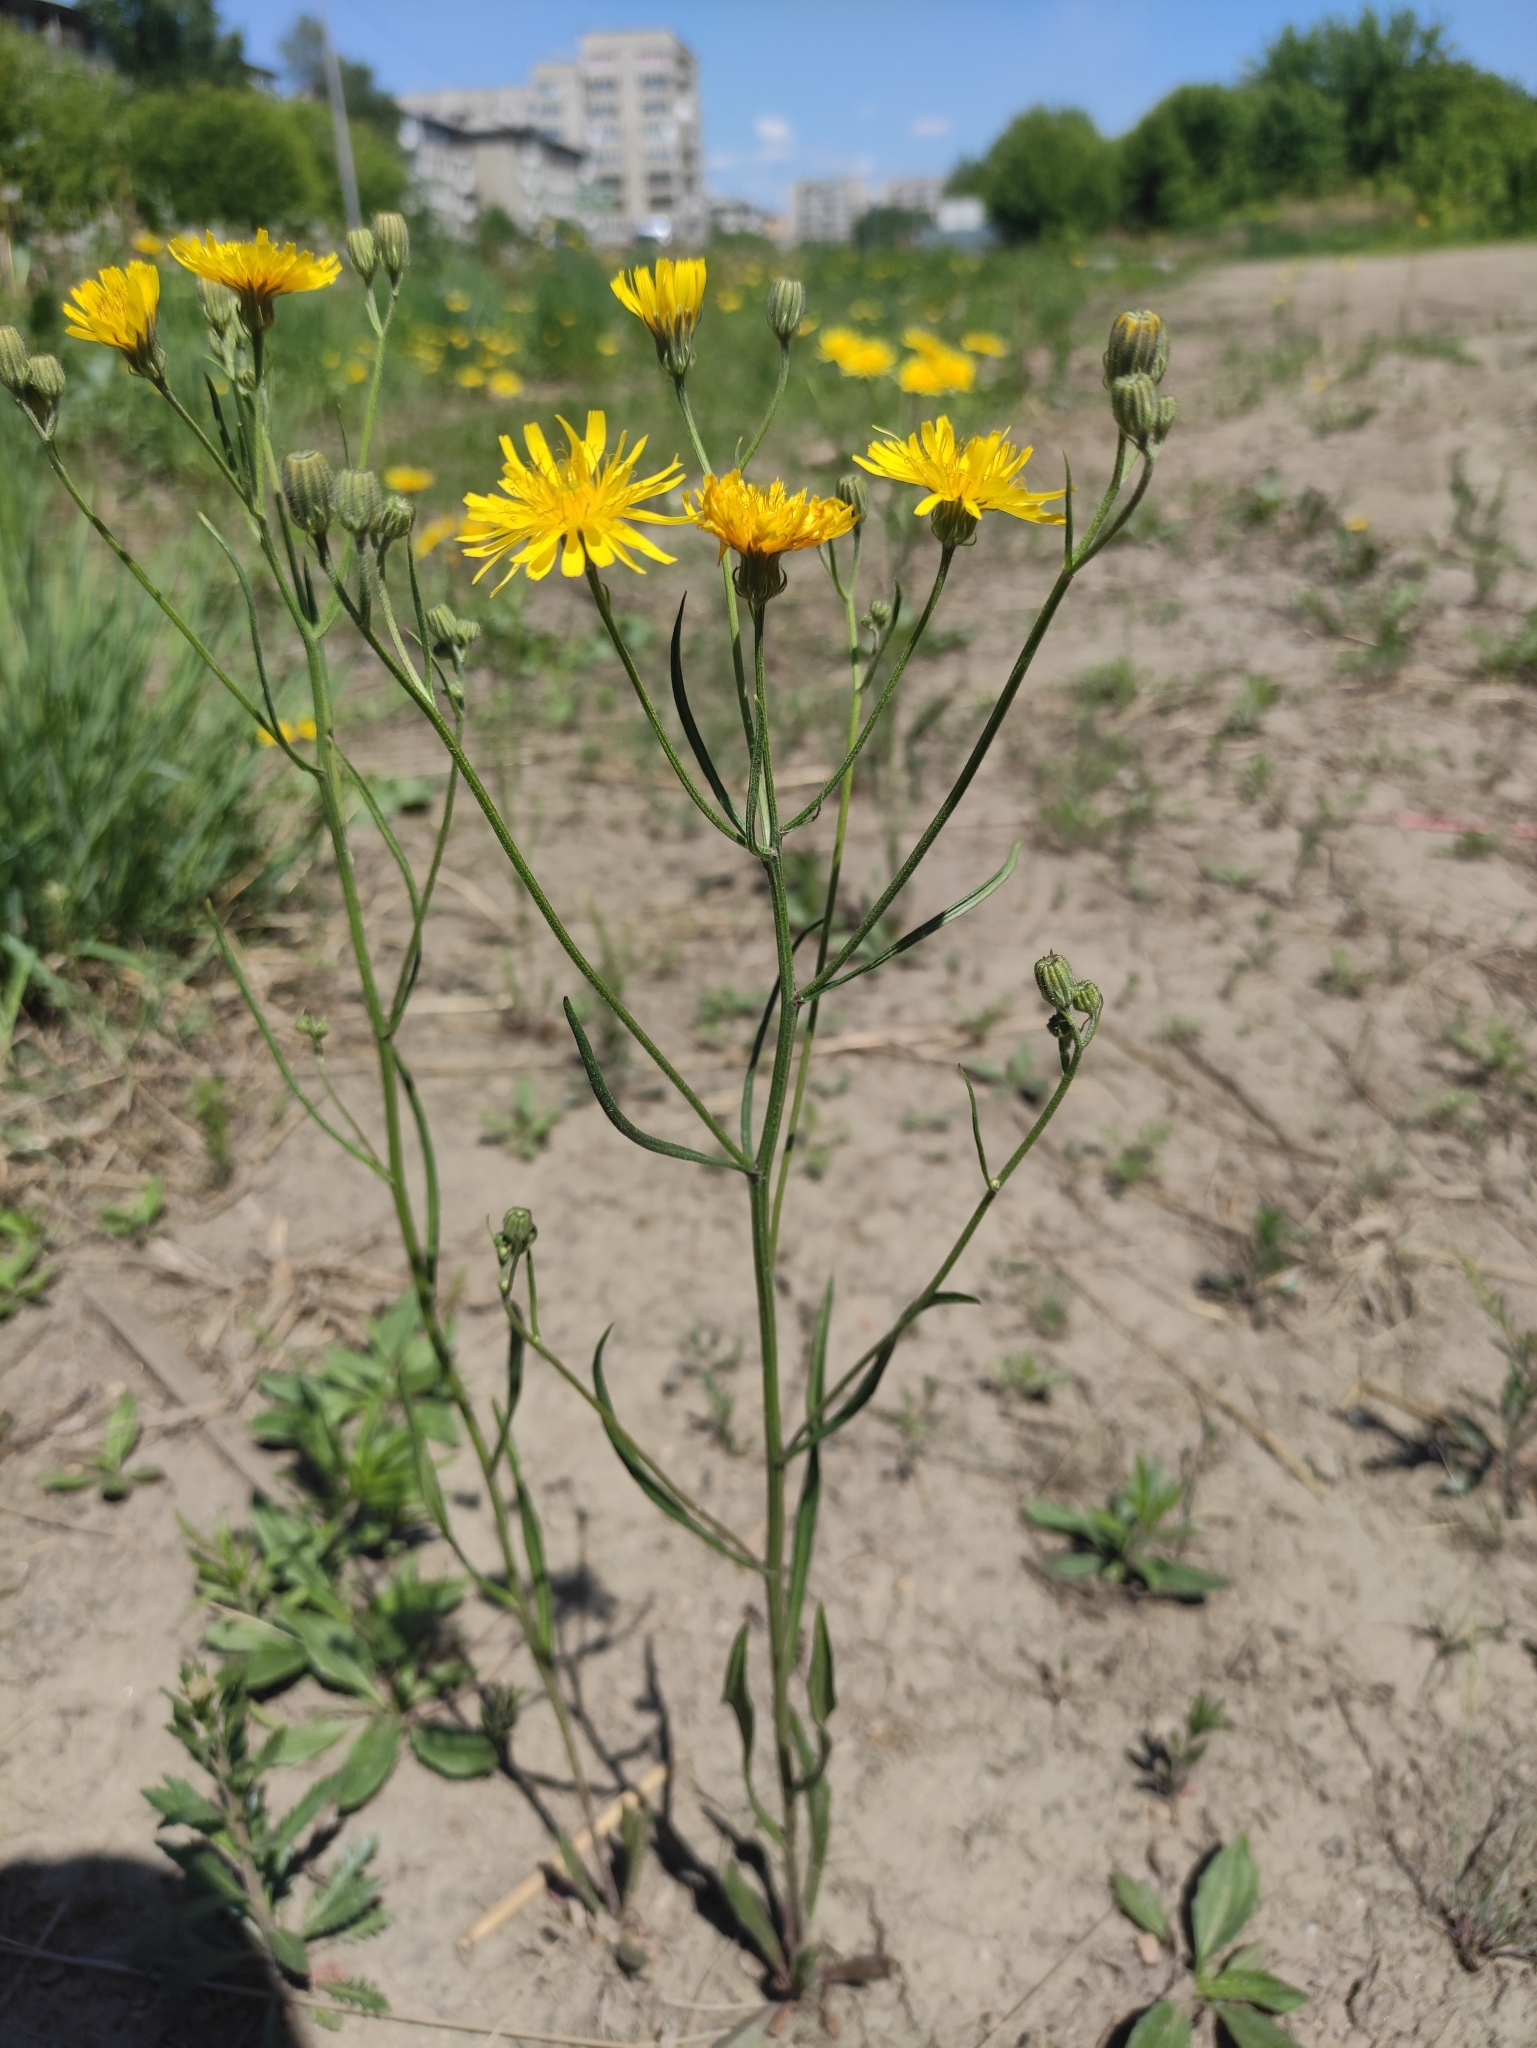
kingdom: Plantae
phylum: Tracheophyta
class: Magnoliopsida
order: Asterales
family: Asteraceae
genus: Crepis
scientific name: Crepis tectorum
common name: Narrow-leaved hawk's-beard
